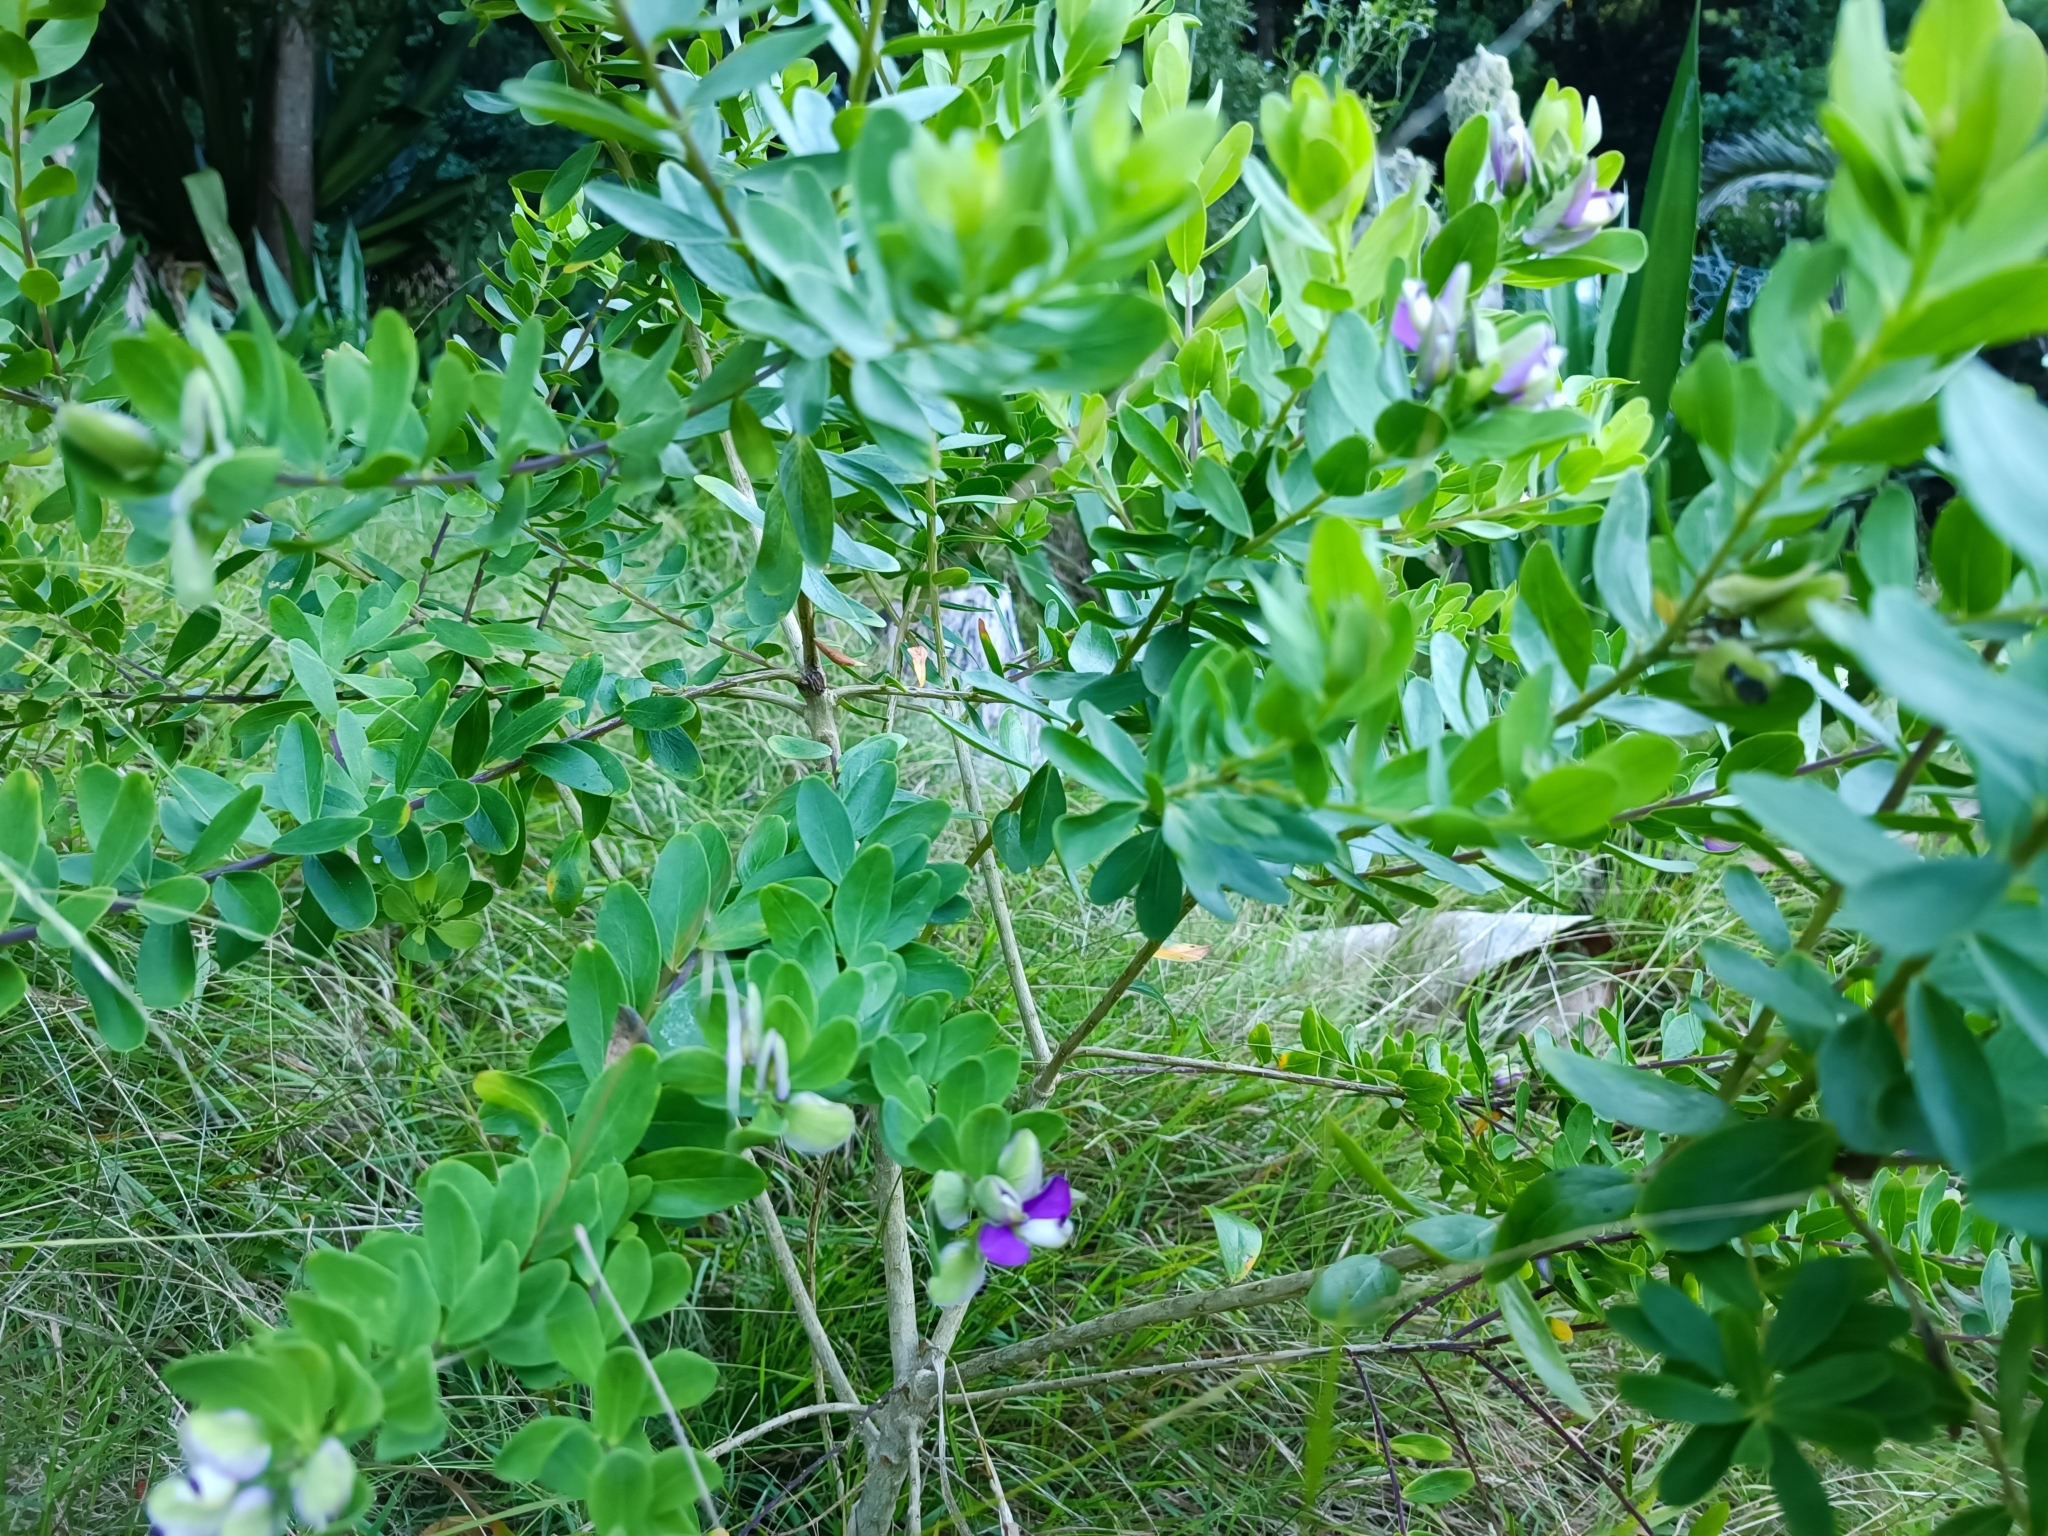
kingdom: Plantae
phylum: Tracheophyta
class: Magnoliopsida
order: Fabales
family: Polygalaceae
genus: Polygala
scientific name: Polygala myrtifolia
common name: Myrtle-leaf milkwort
